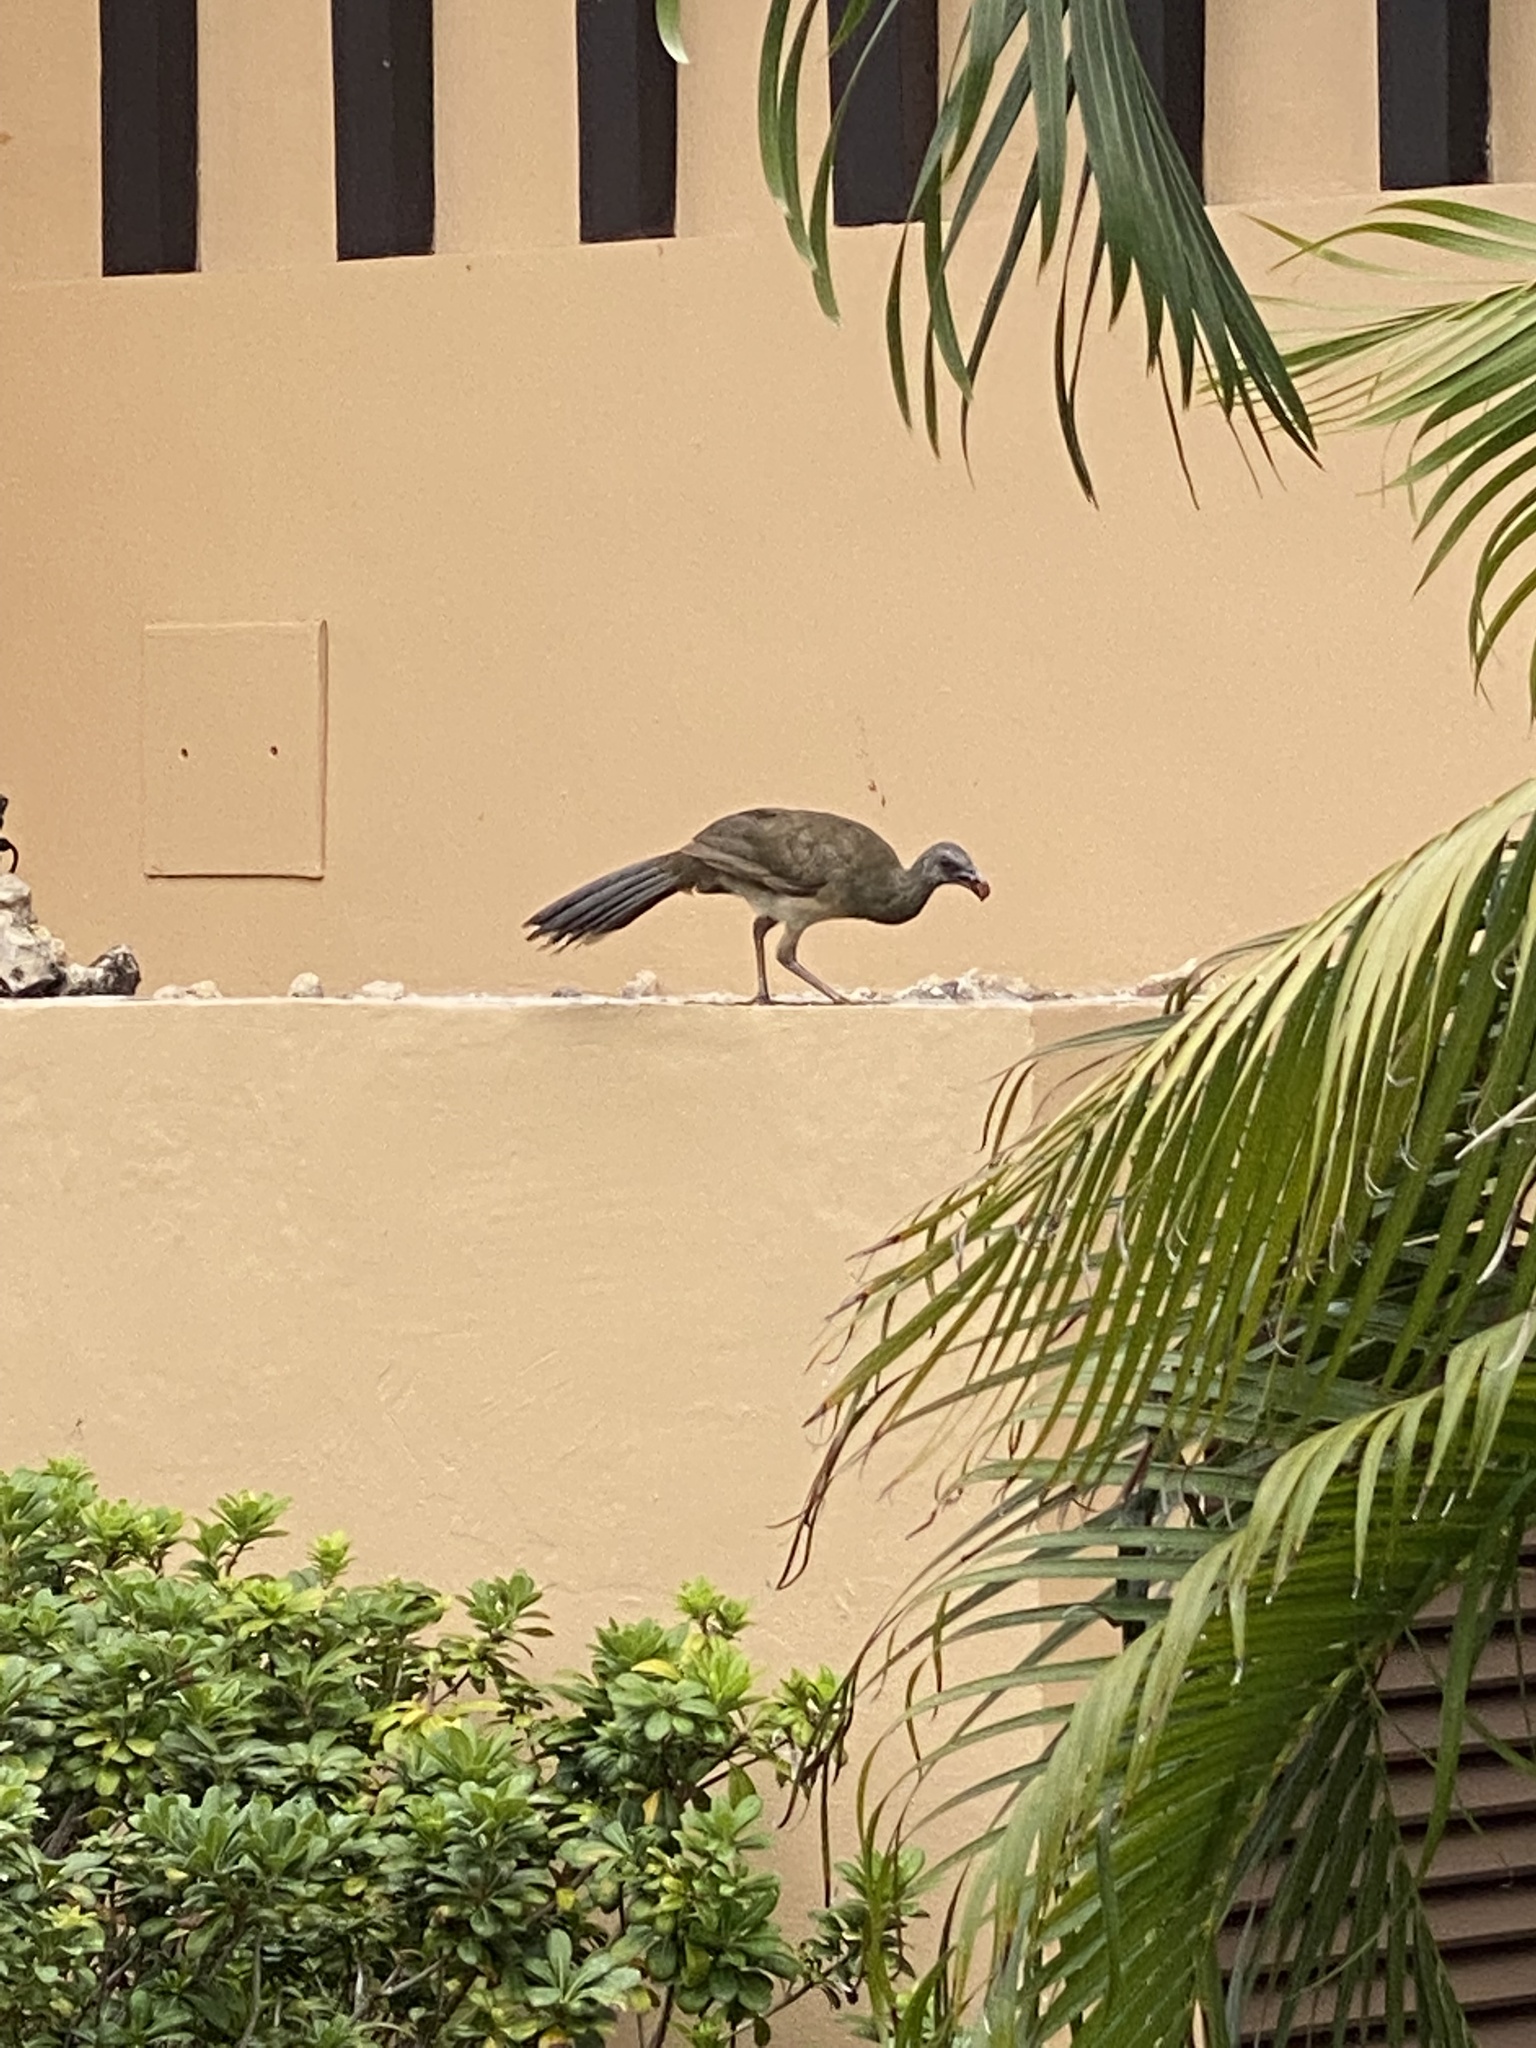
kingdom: Animalia
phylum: Chordata
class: Aves
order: Galliformes
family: Cracidae
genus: Ortalis
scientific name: Ortalis vetula
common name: Plain chachalaca
